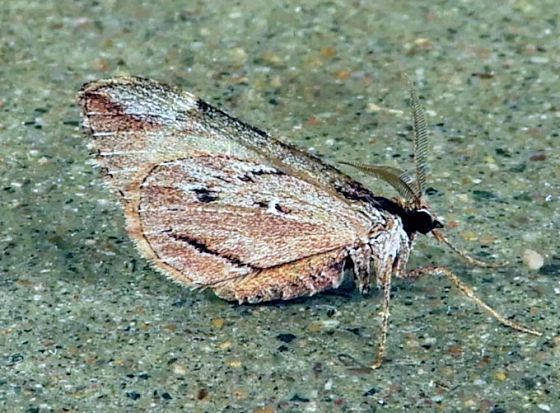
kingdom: Animalia
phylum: Arthropoda
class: Insecta
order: Lepidoptera
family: Geometridae
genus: Stamnoctenis
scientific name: Stamnoctenis morrisata
